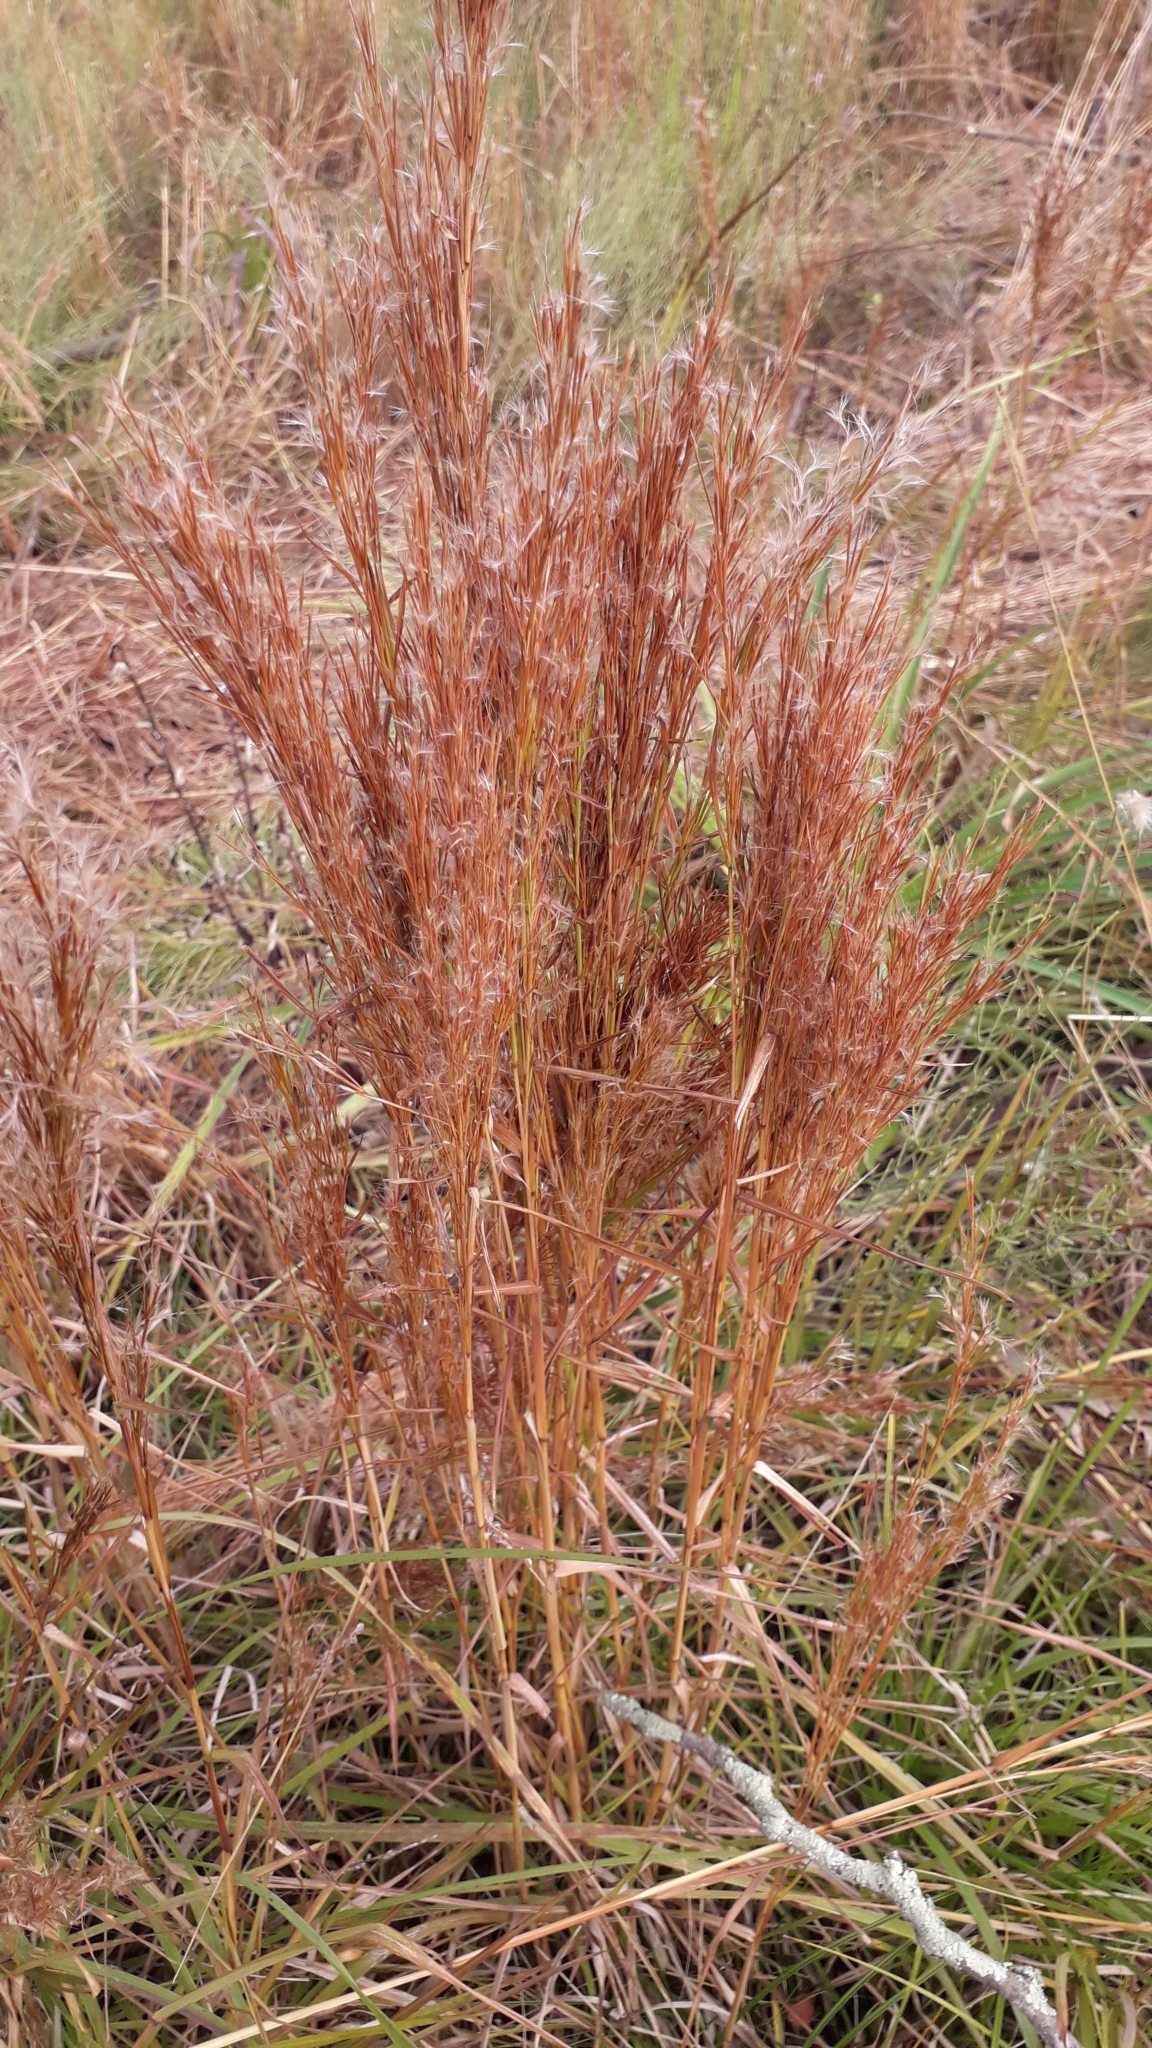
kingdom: Plantae
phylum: Tracheophyta
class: Liliopsida
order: Poales
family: Poaceae
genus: Schizachyrium
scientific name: Schizachyrium microstachyum
